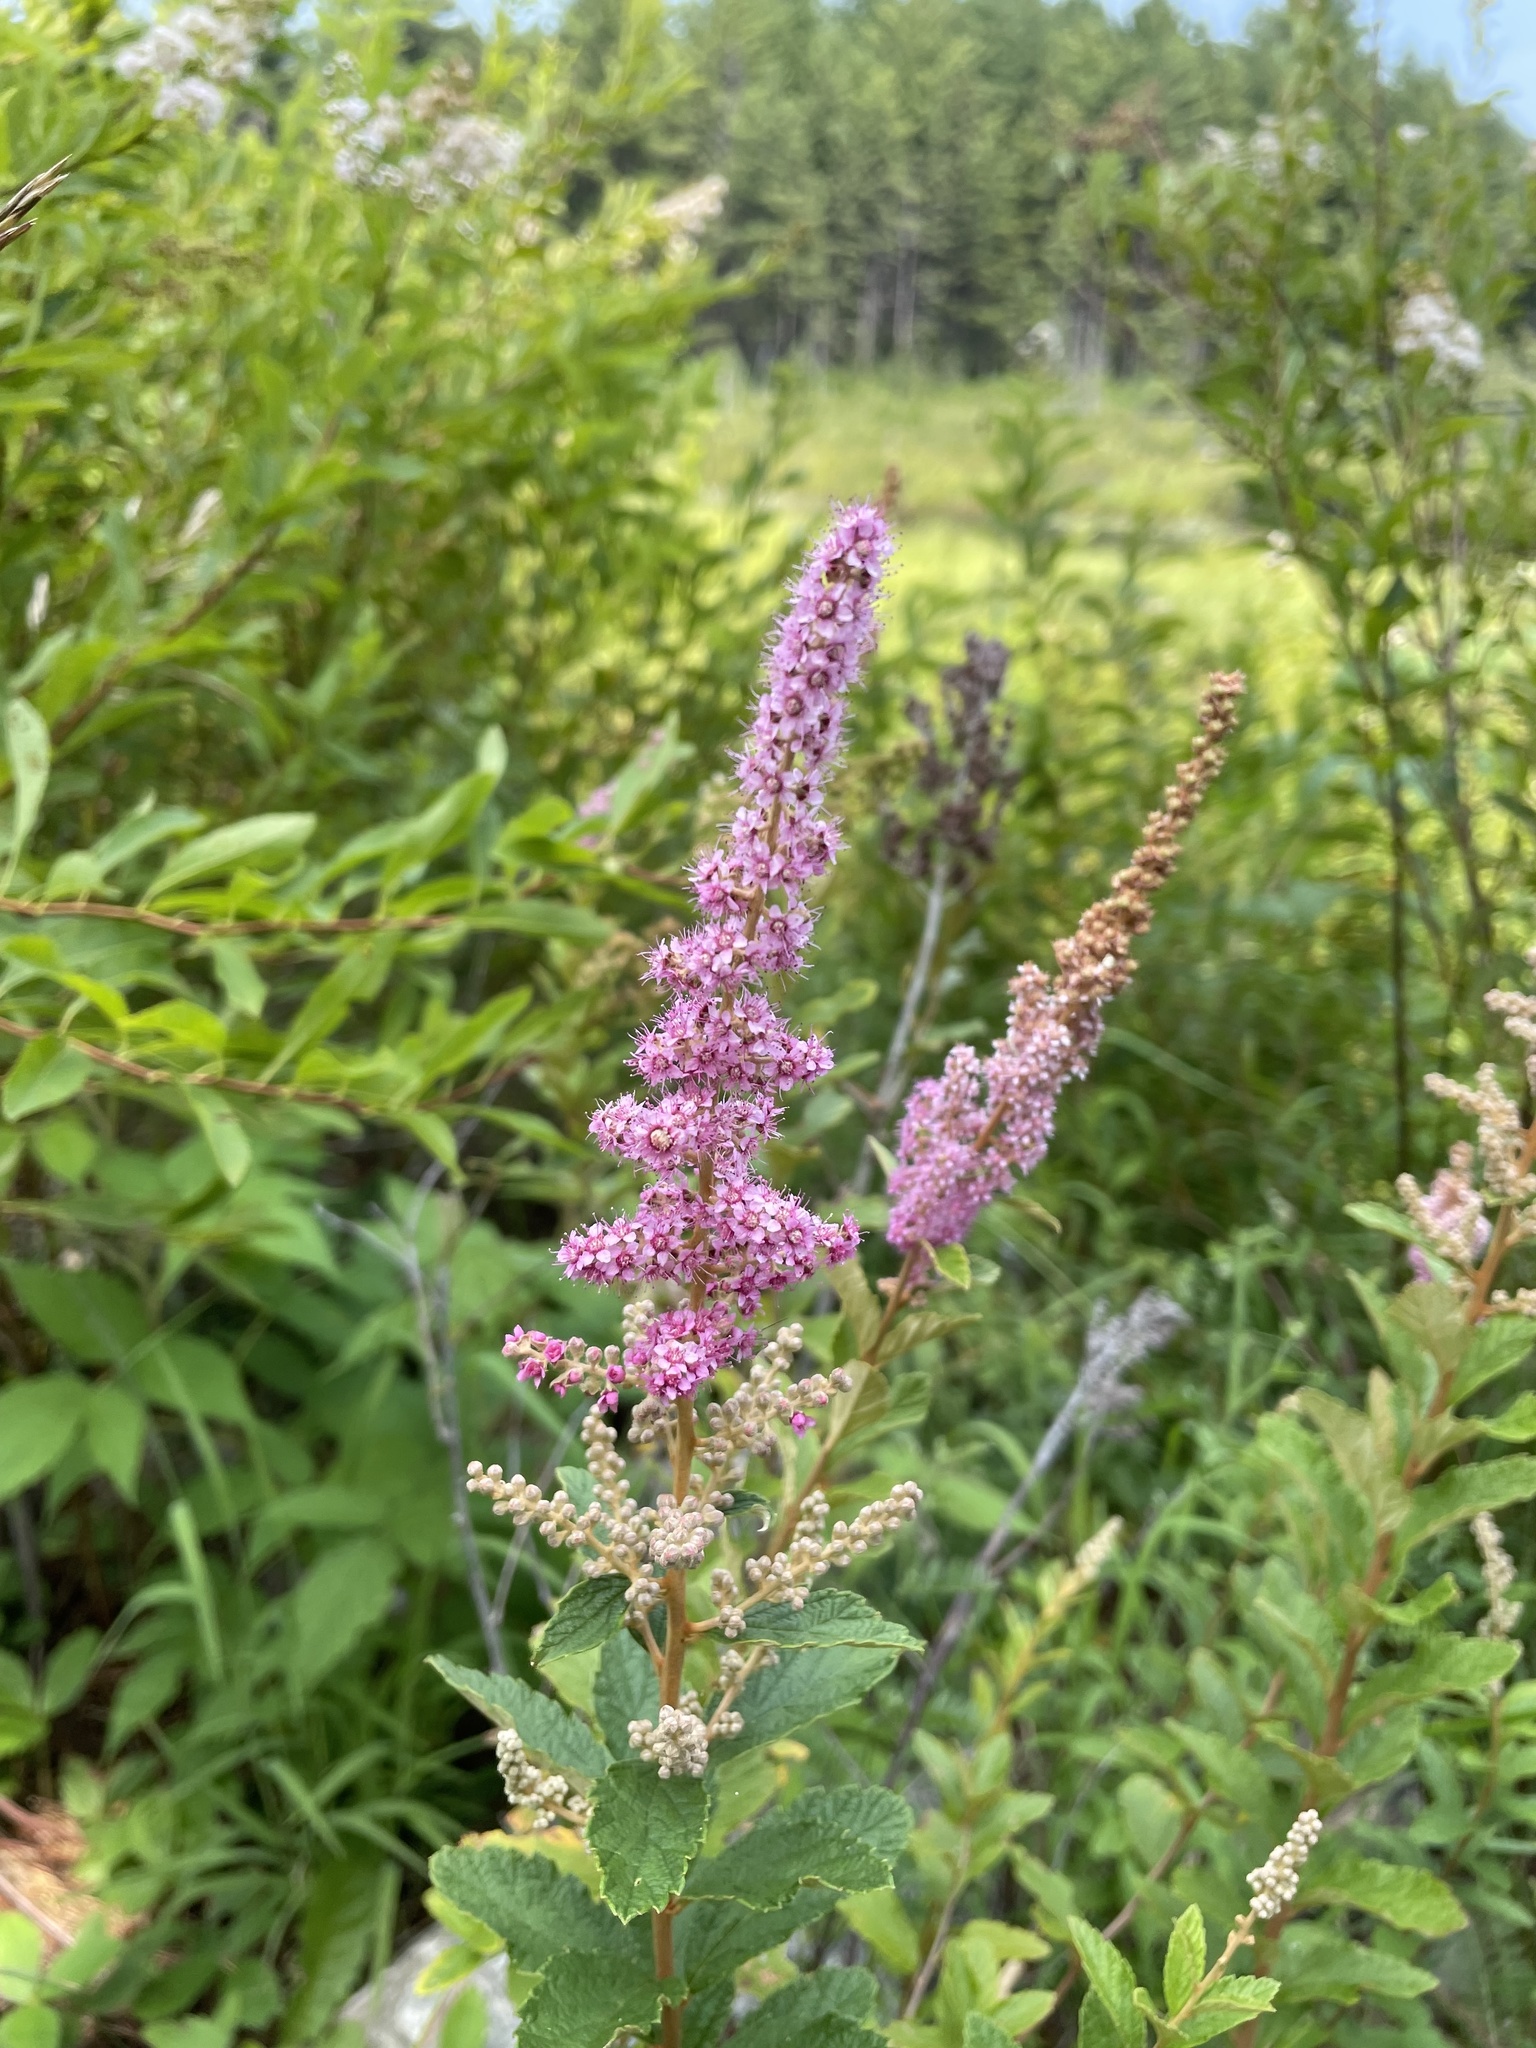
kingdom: Plantae
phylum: Tracheophyta
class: Magnoliopsida
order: Rosales
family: Rosaceae
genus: Spiraea
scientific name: Spiraea tomentosa
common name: Hardhack
